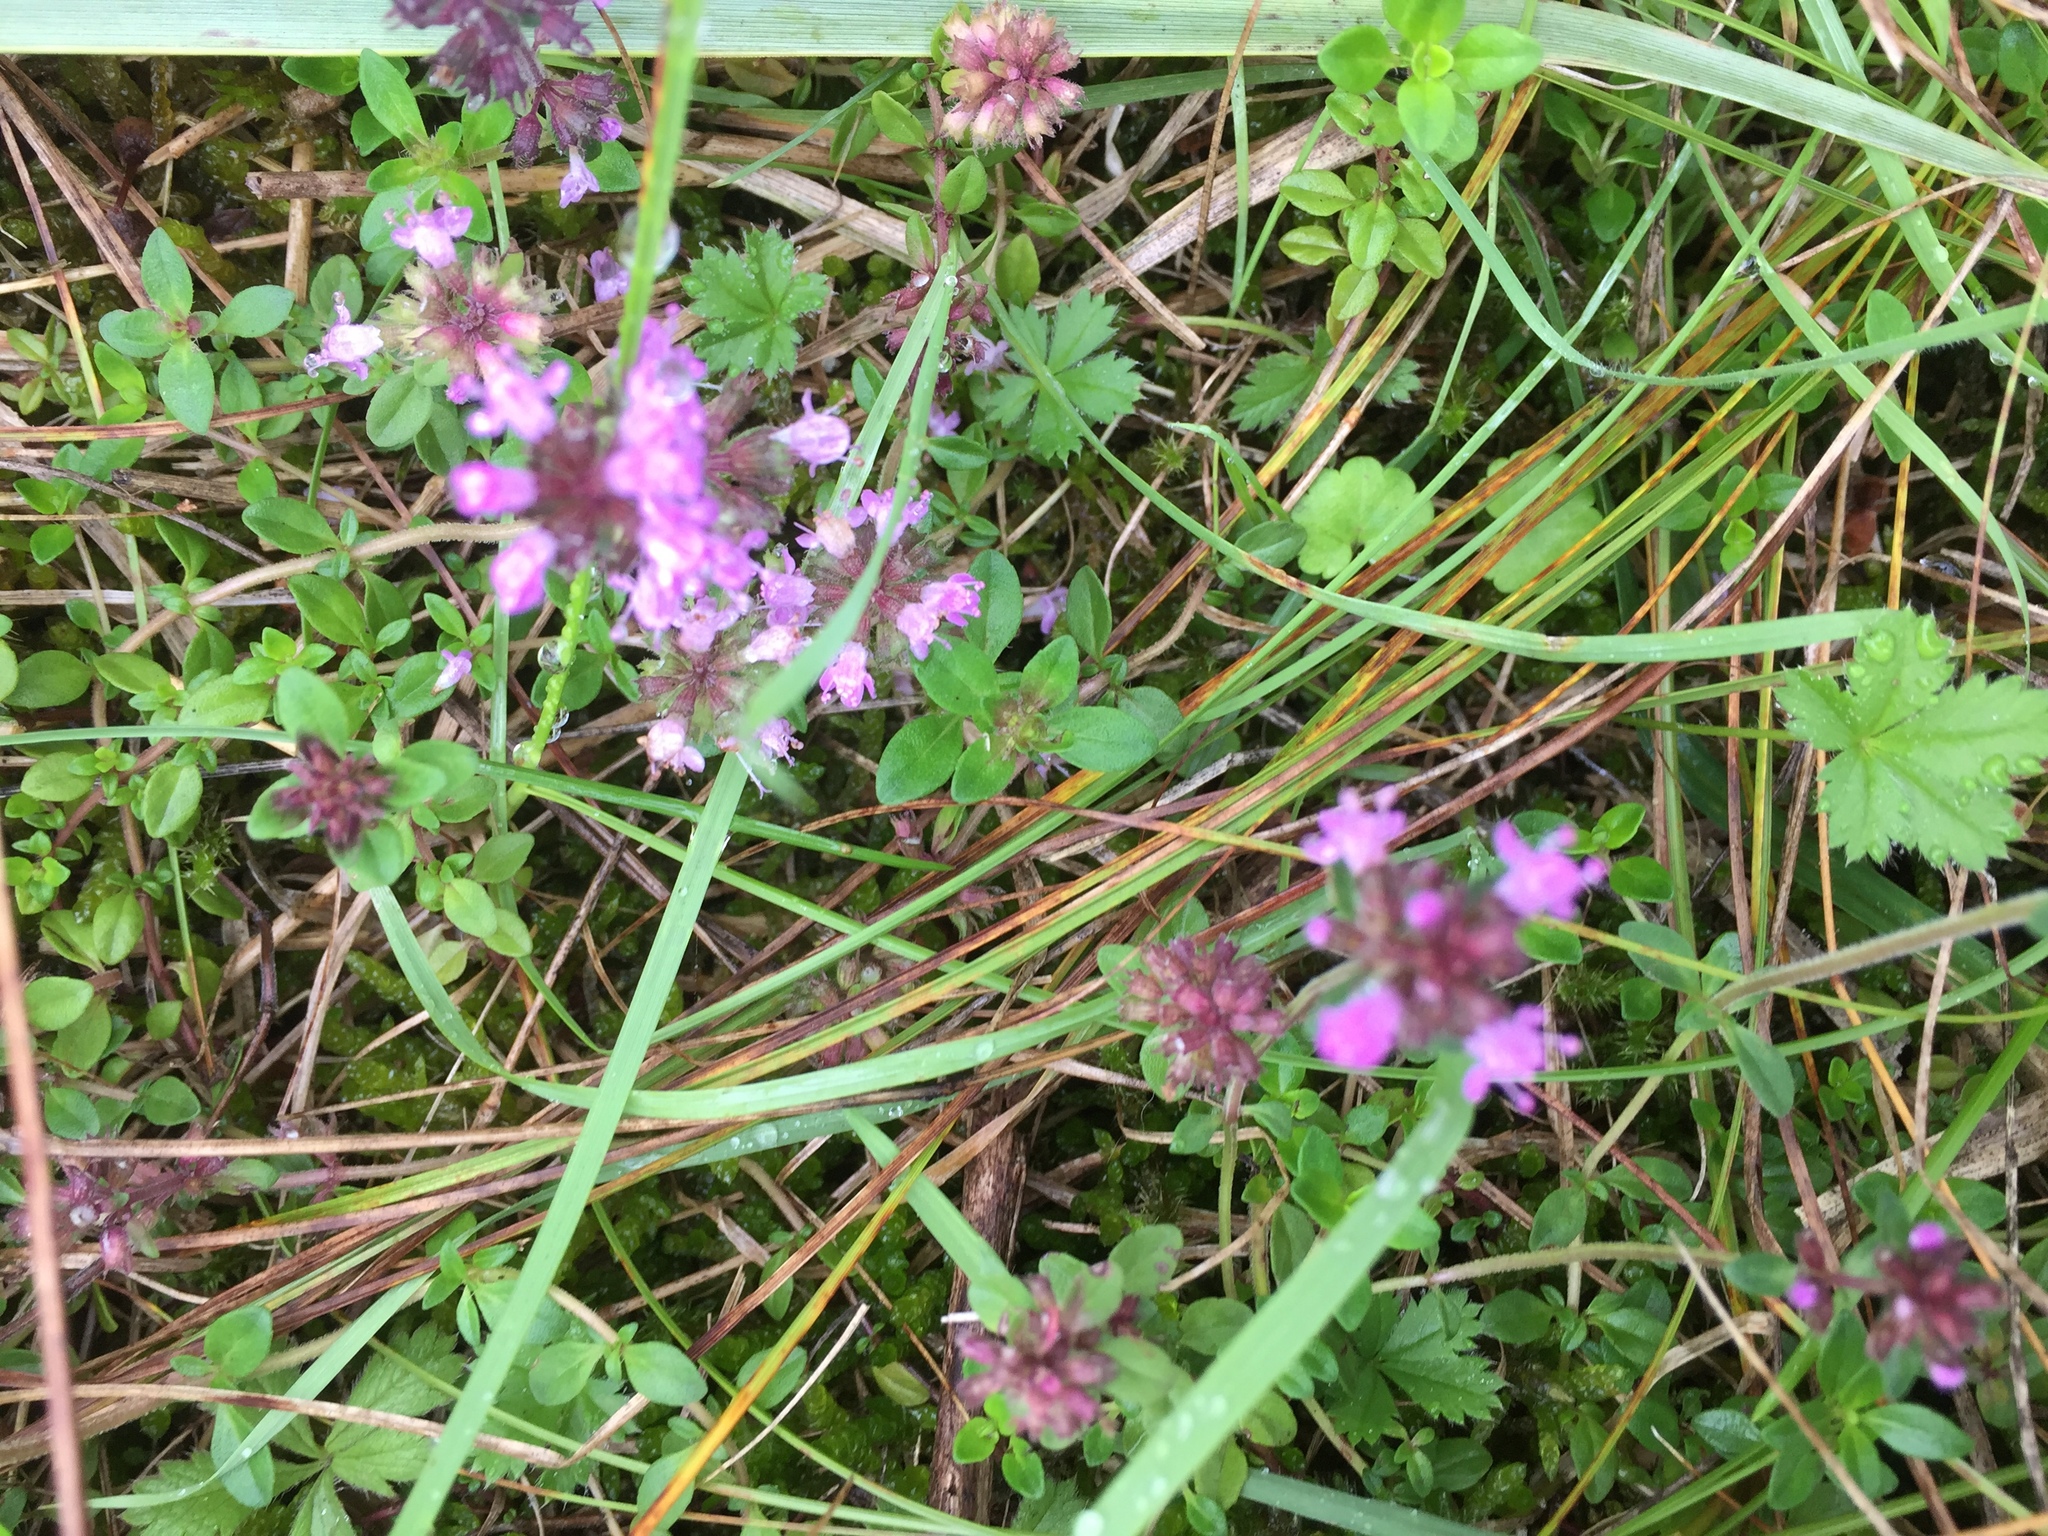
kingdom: Plantae
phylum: Tracheophyta
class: Magnoliopsida
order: Lamiales
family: Lamiaceae
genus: Thymus
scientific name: Thymus pulegioides
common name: Large thyme
